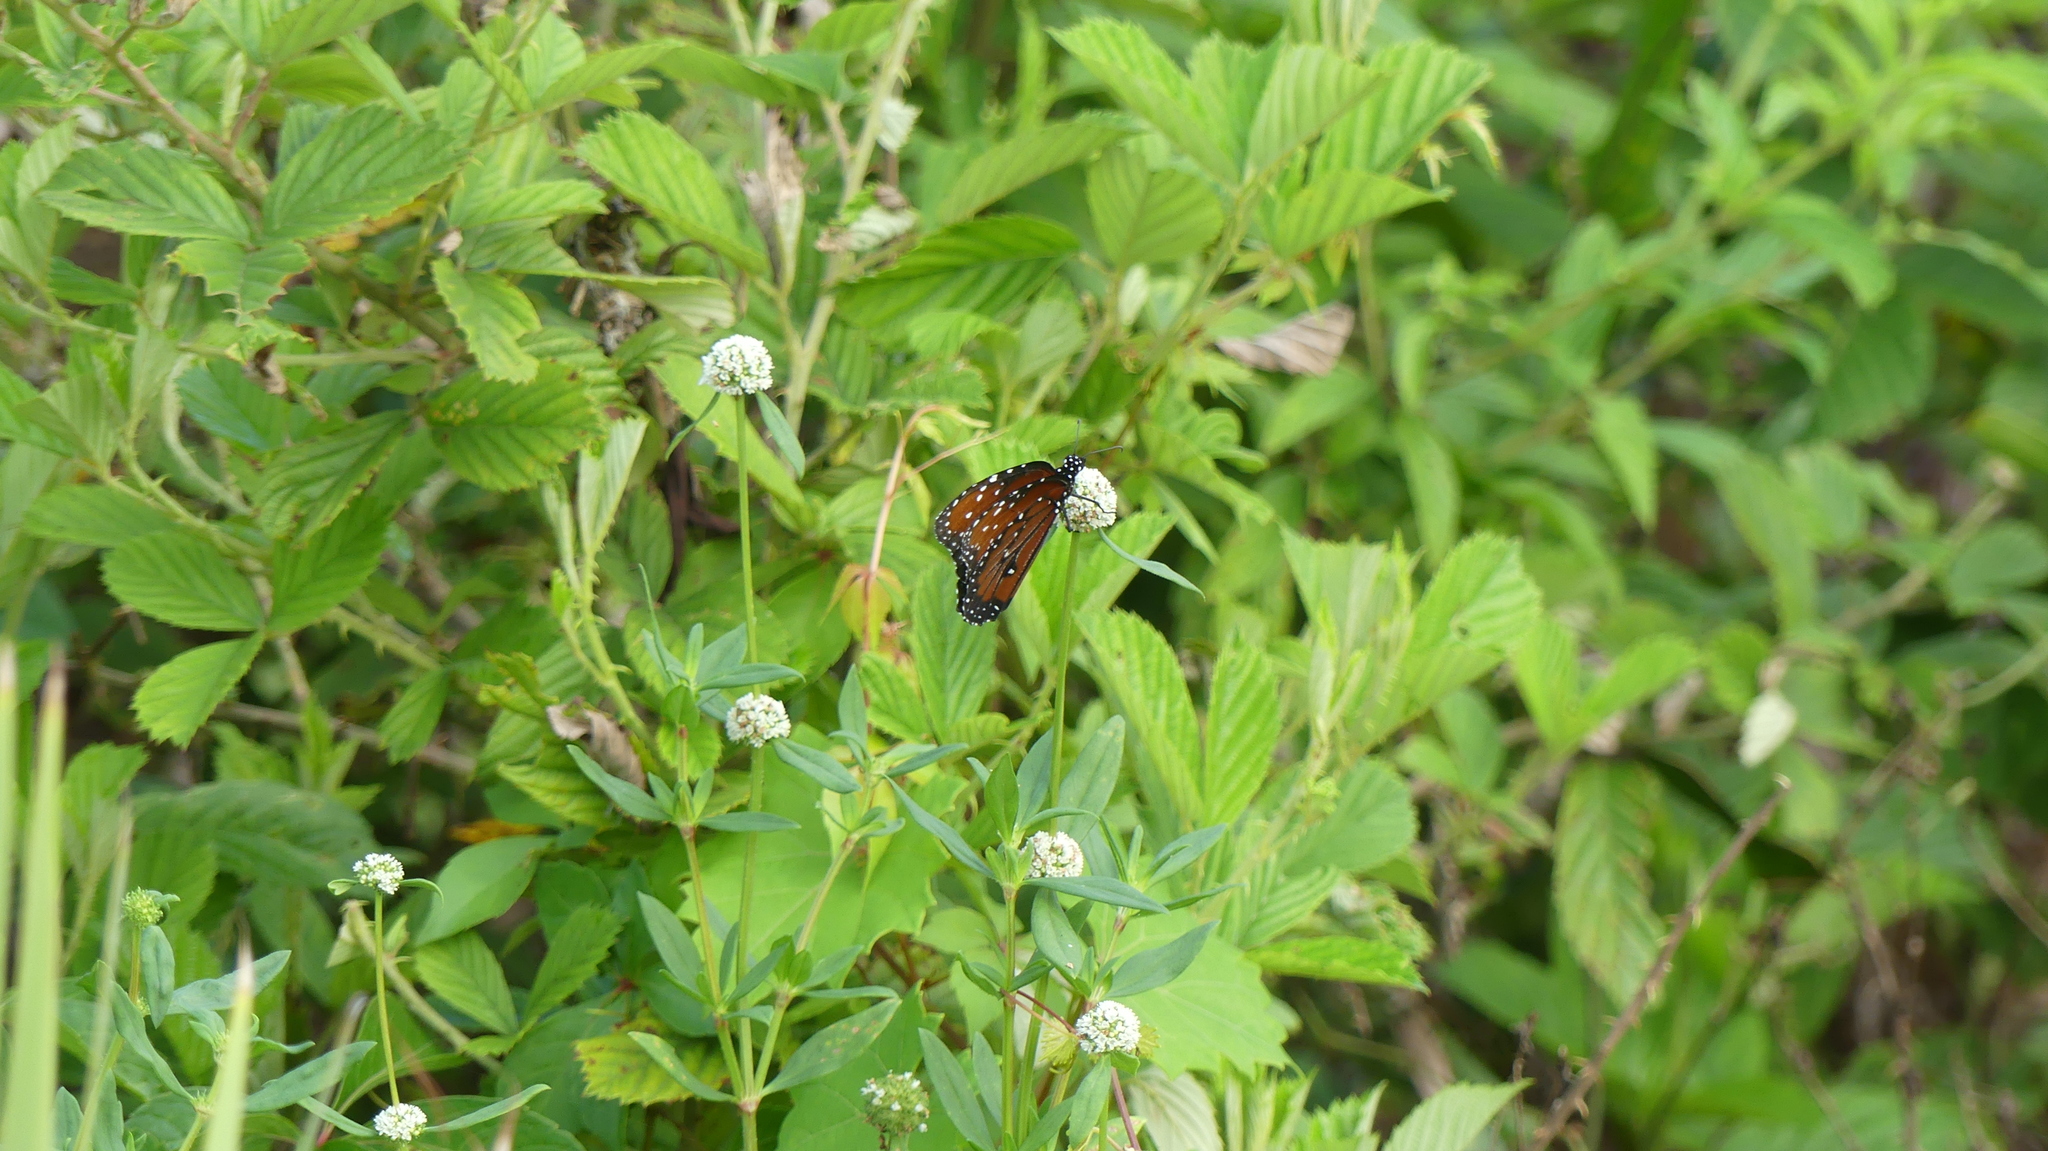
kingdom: Animalia
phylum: Arthropoda
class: Insecta
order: Lepidoptera
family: Nymphalidae
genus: Danaus
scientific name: Danaus gilippus
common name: Queen
